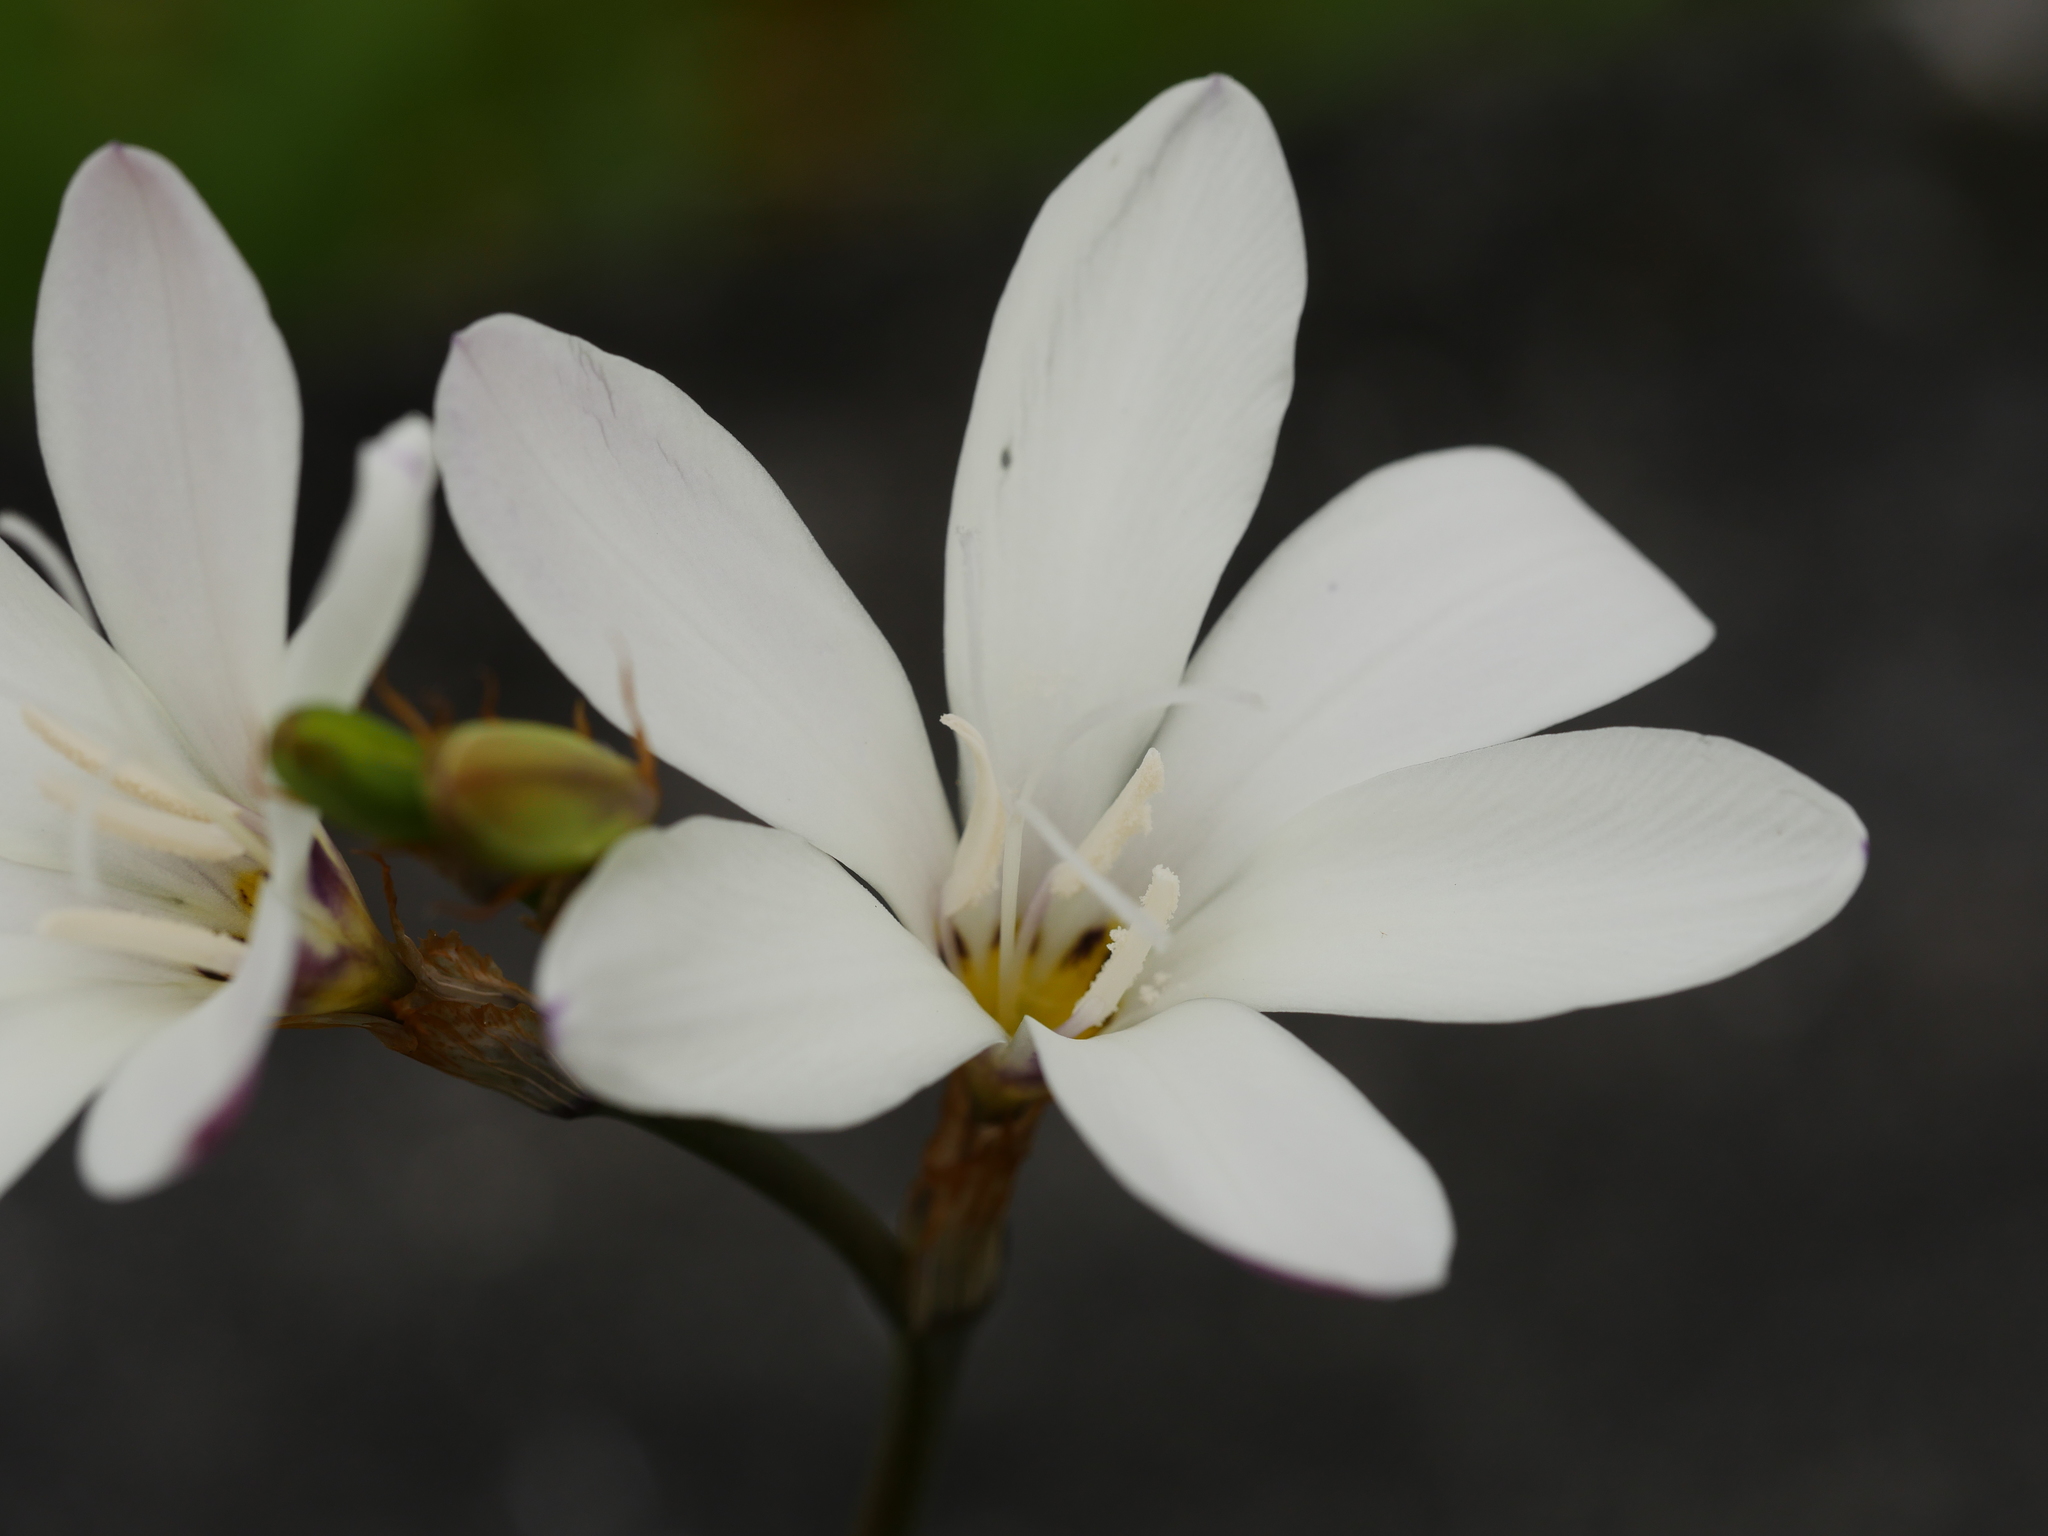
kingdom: Plantae
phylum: Tracheophyta
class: Liliopsida
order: Asparagales
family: Iridaceae
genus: Sparaxis
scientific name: Sparaxis bulbifera
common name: Harlequin-flower
